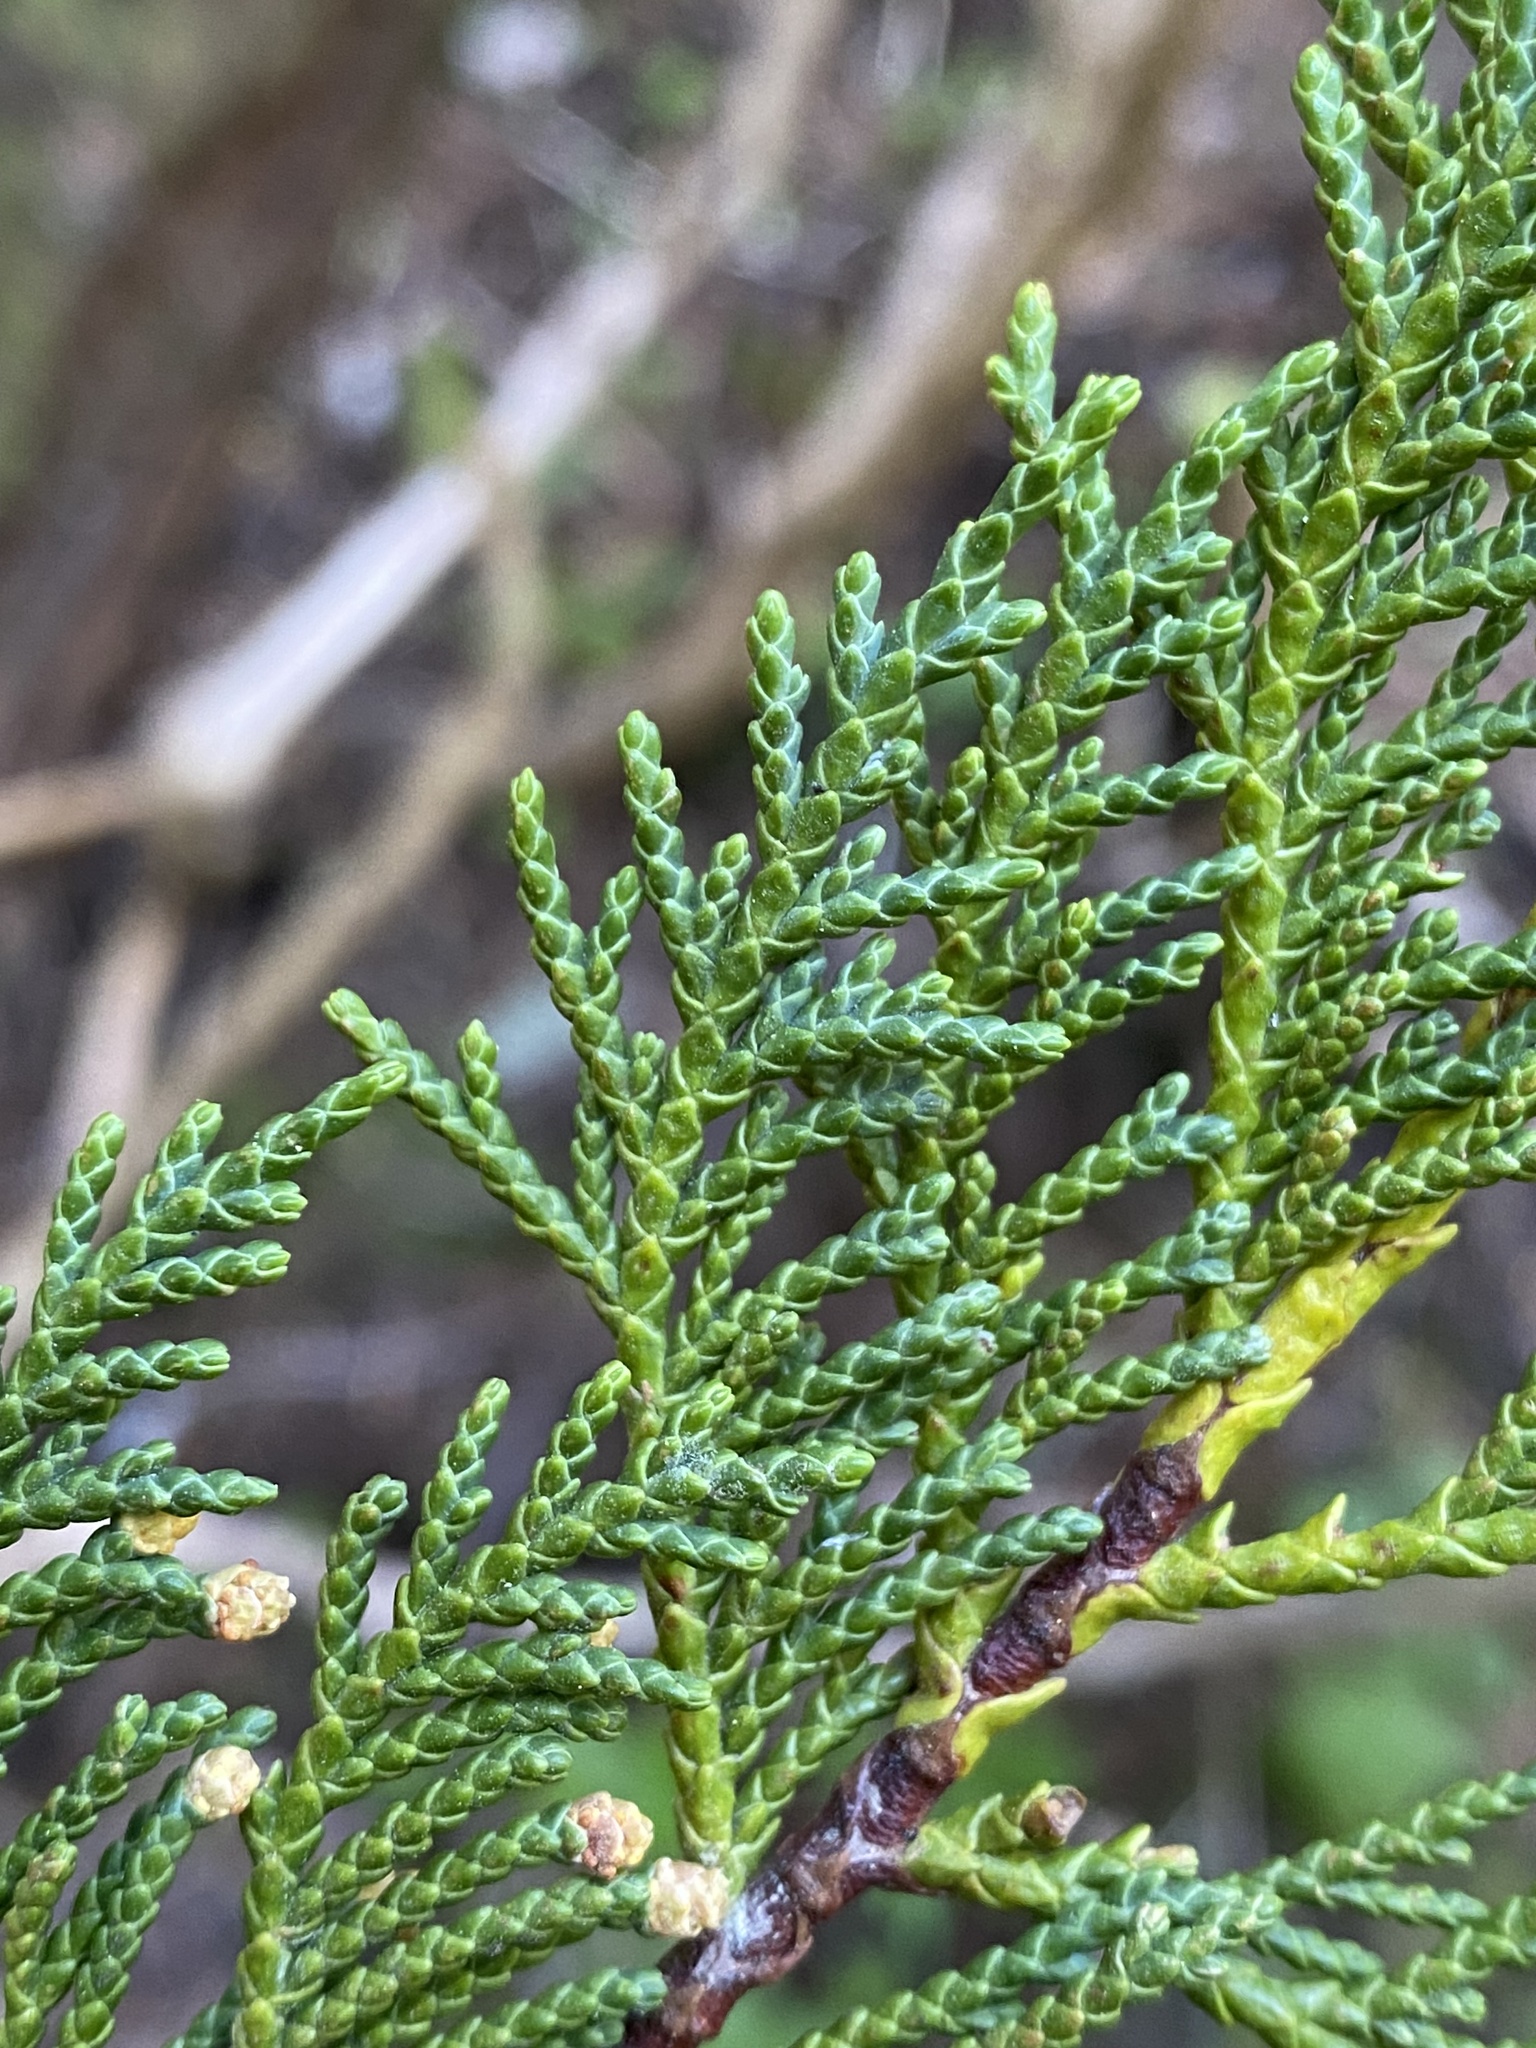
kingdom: Plantae
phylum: Tracheophyta
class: Pinopsida
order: Pinales
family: Cupressaceae
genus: Xanthocyparis
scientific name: Xanthocyparis nootkatensis
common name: Nootka cypress
